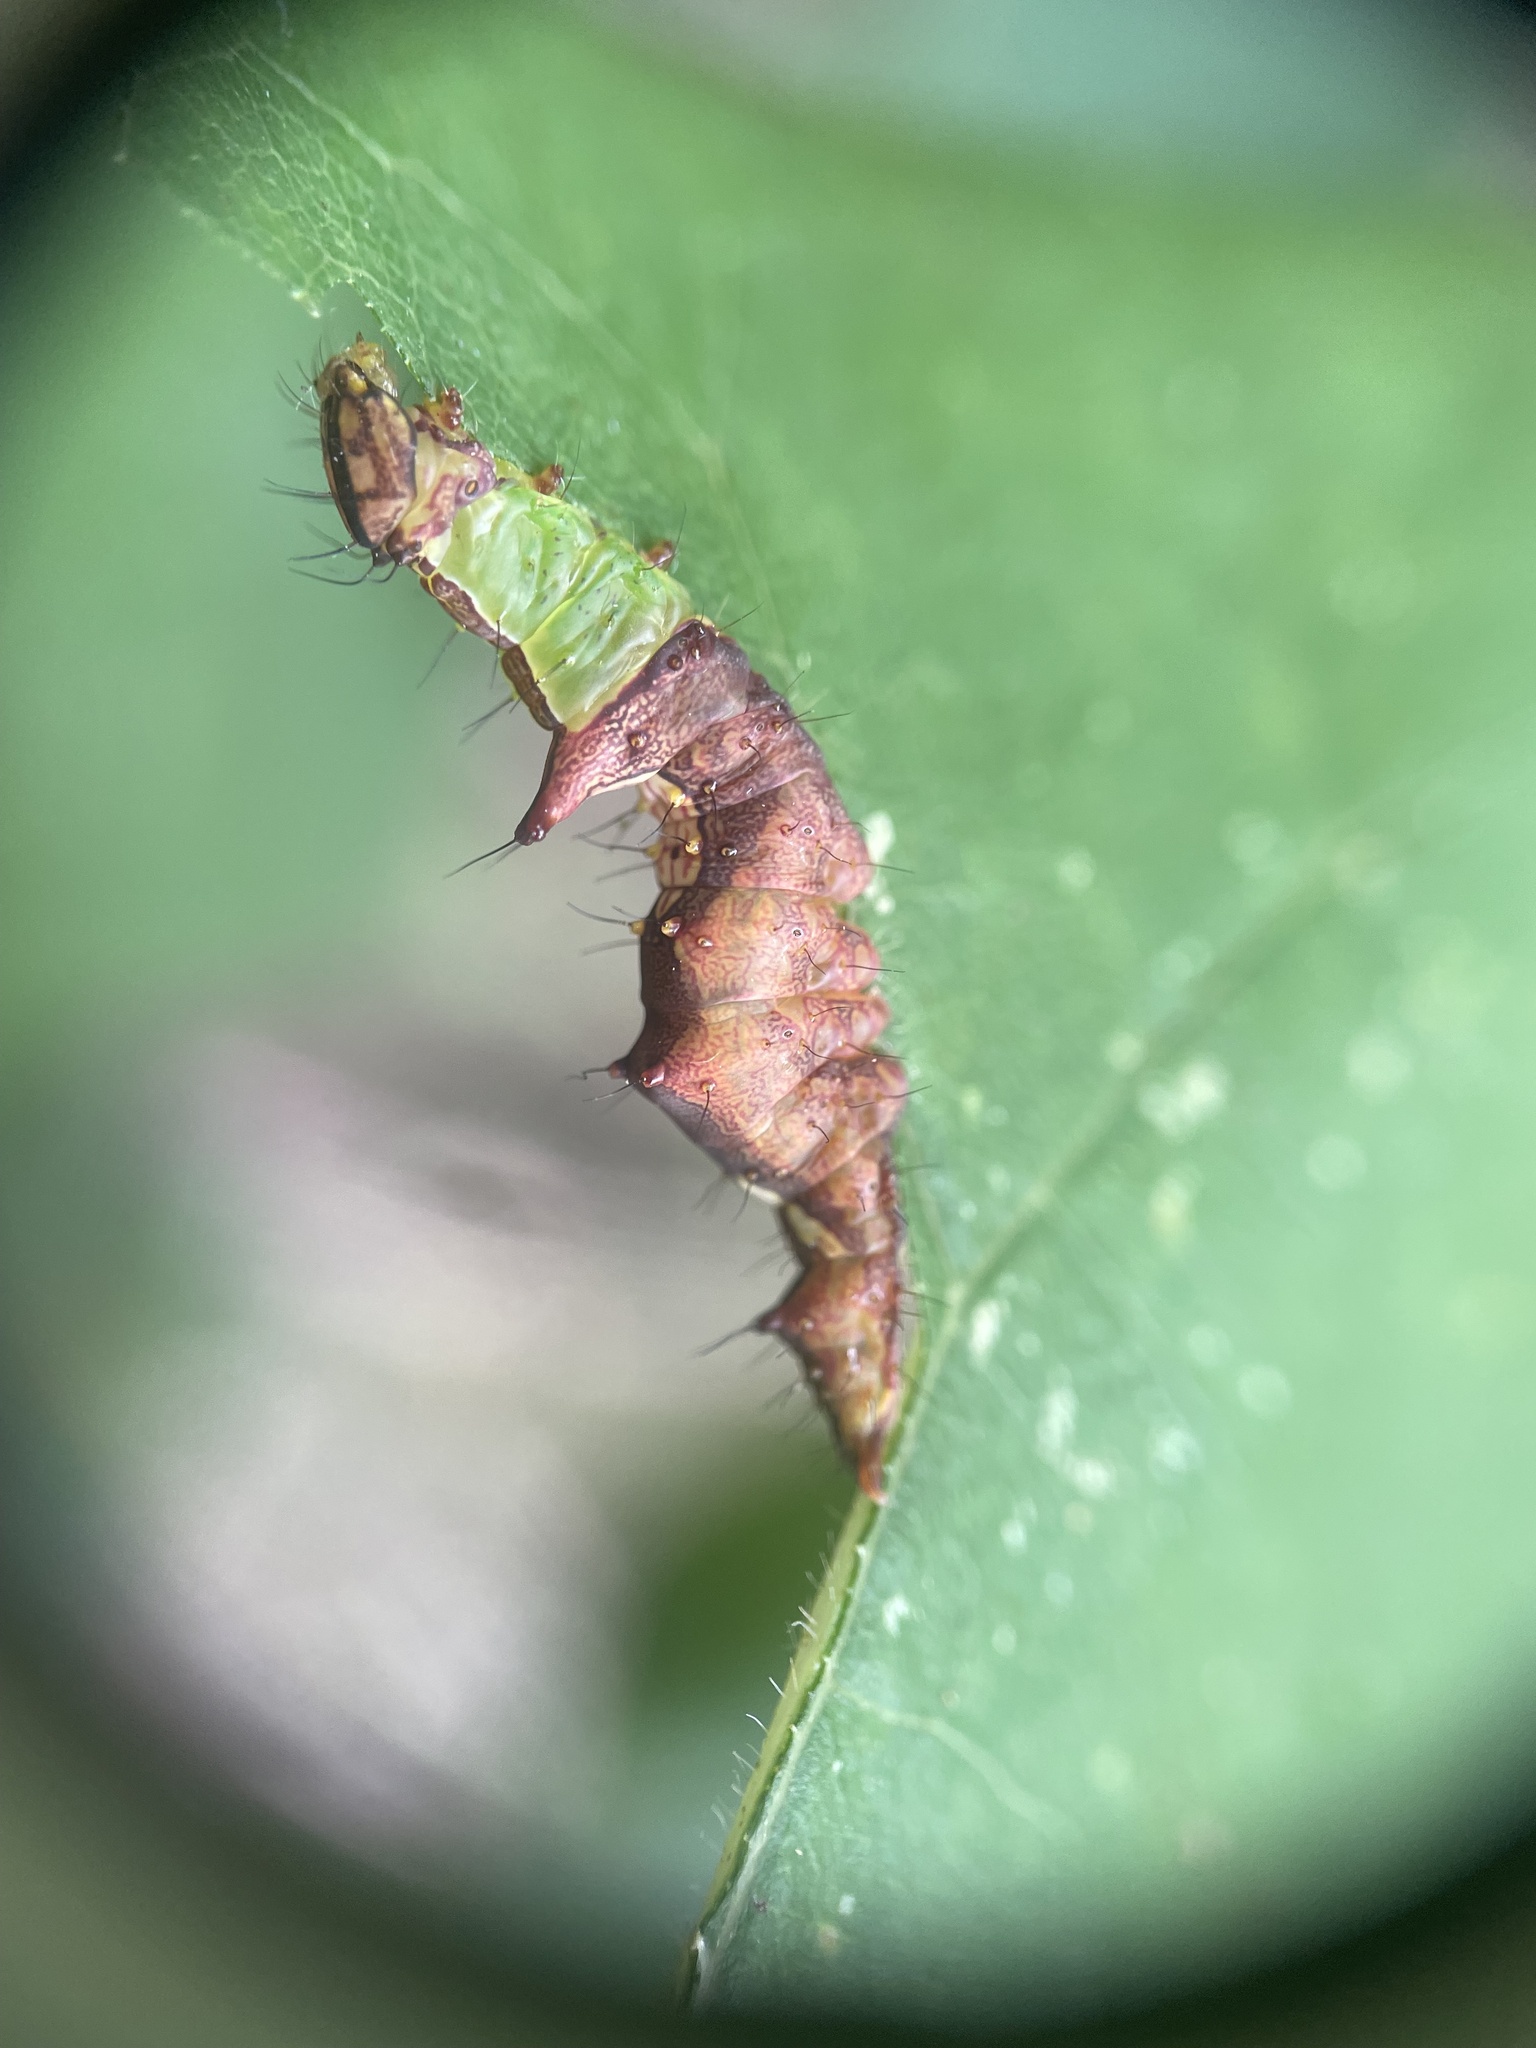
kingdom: Animalia
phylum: Arthropoda
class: Insecta
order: Lepidoptera
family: Notodontidae
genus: Schizura
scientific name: Schizura ipomaeae
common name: Morning-glory prominent
